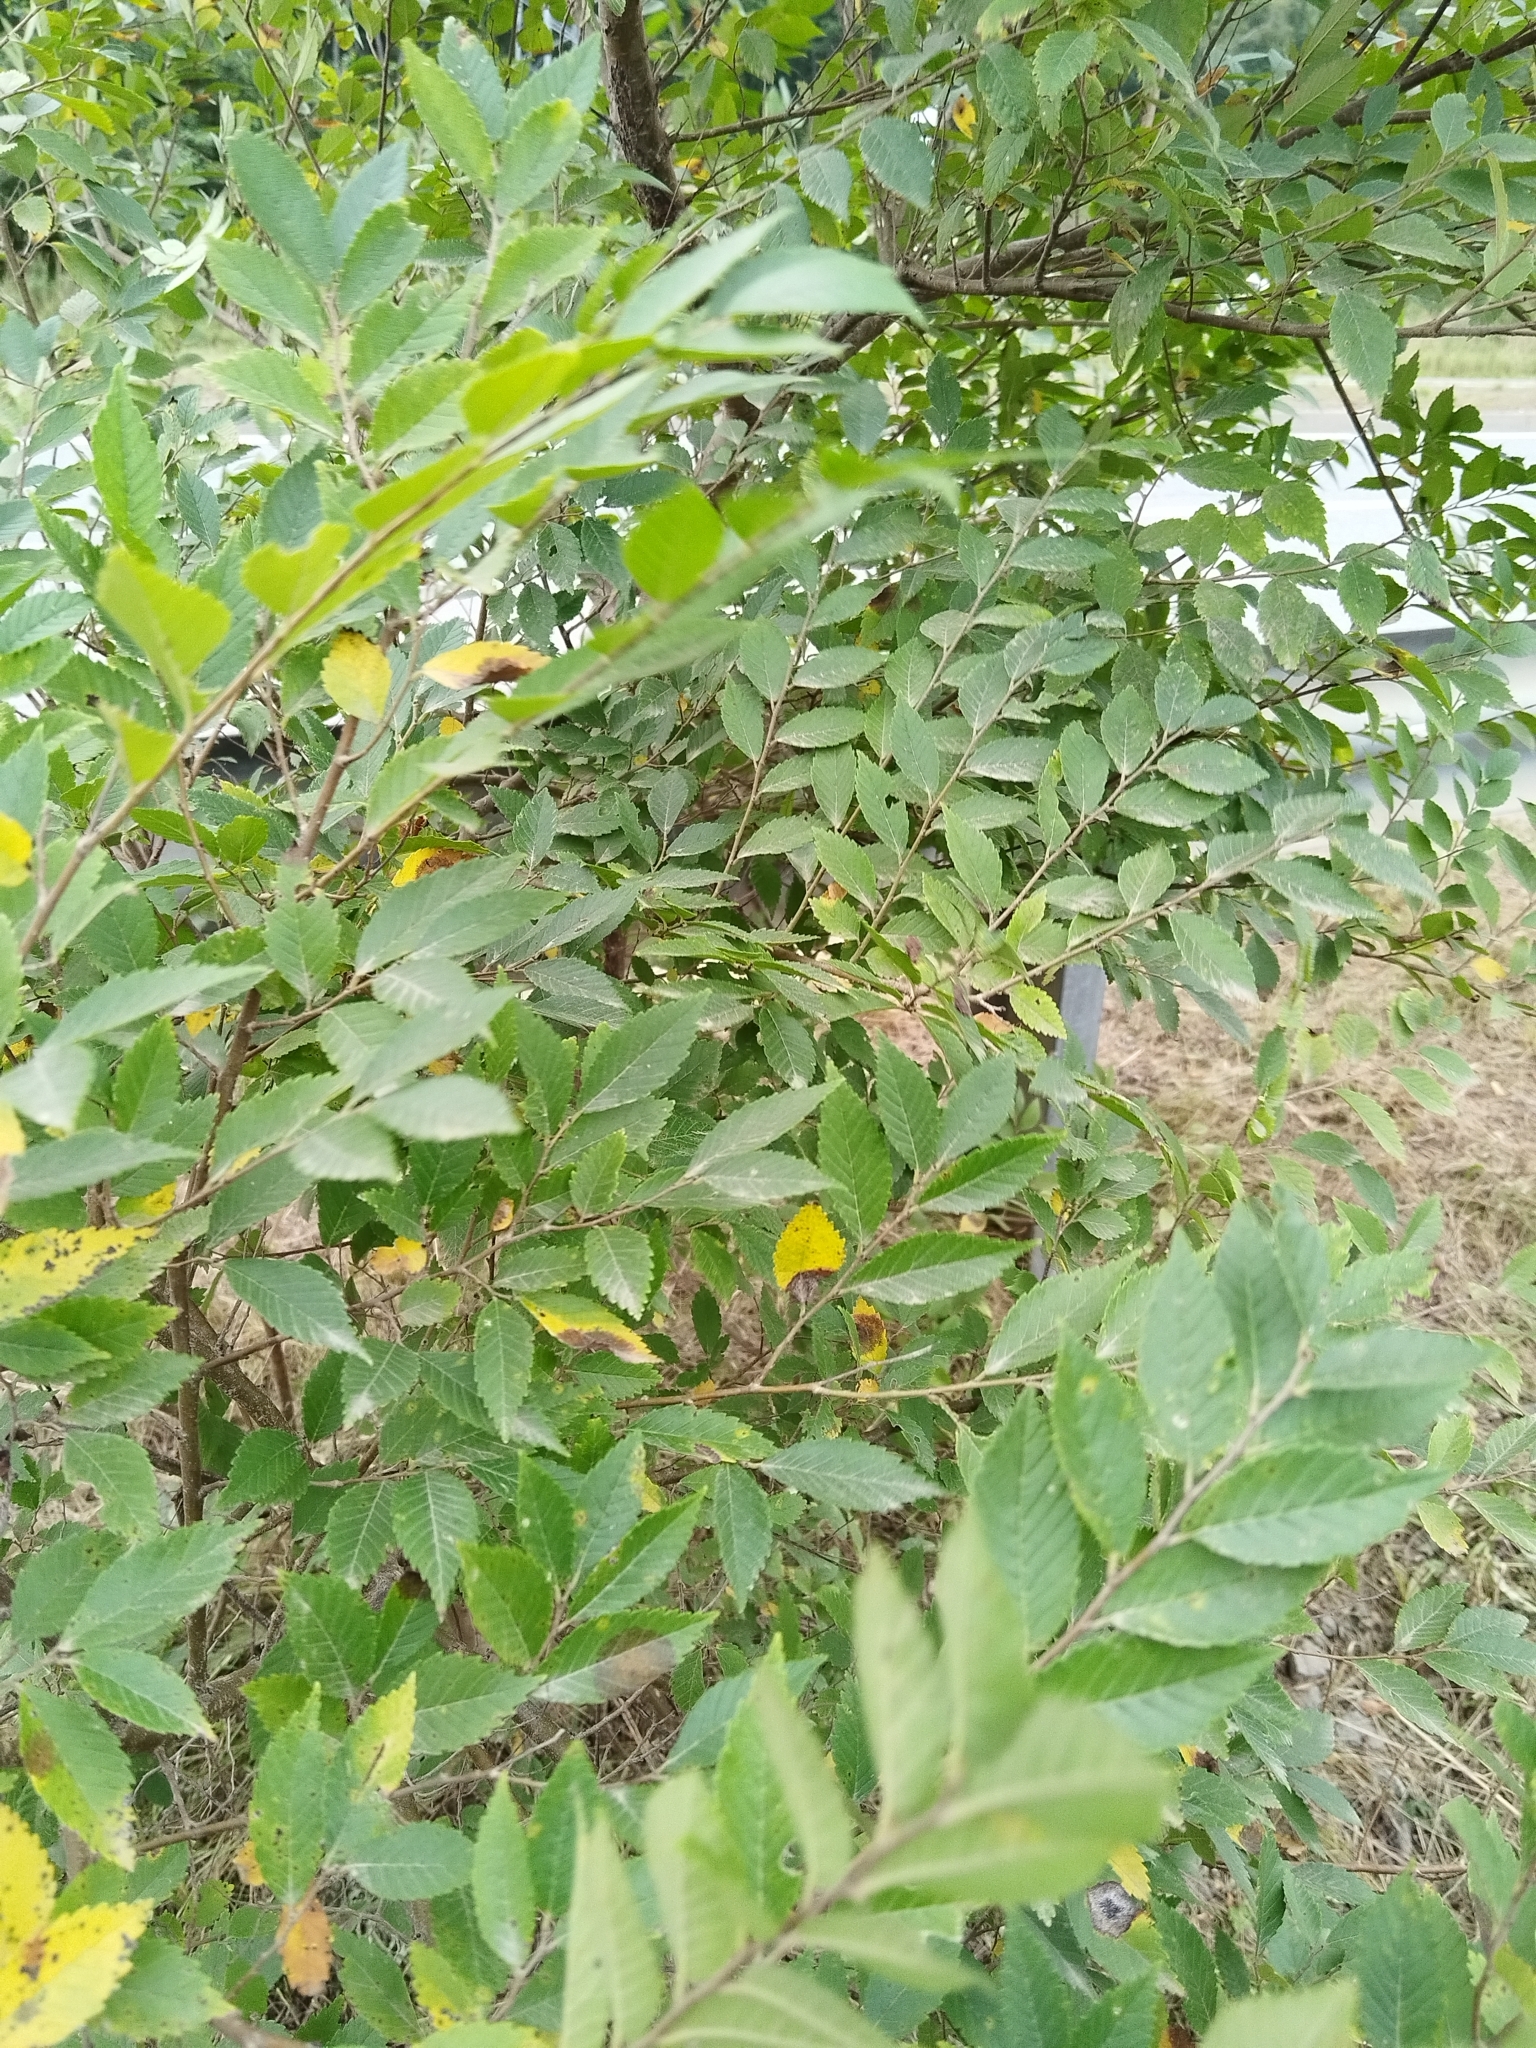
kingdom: Plantae
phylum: Tracheophyta
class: Magnoliopsida
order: Rosales
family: Ulmaceae
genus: Ulmus
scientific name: Ulmus pumila
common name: Siberian elm
